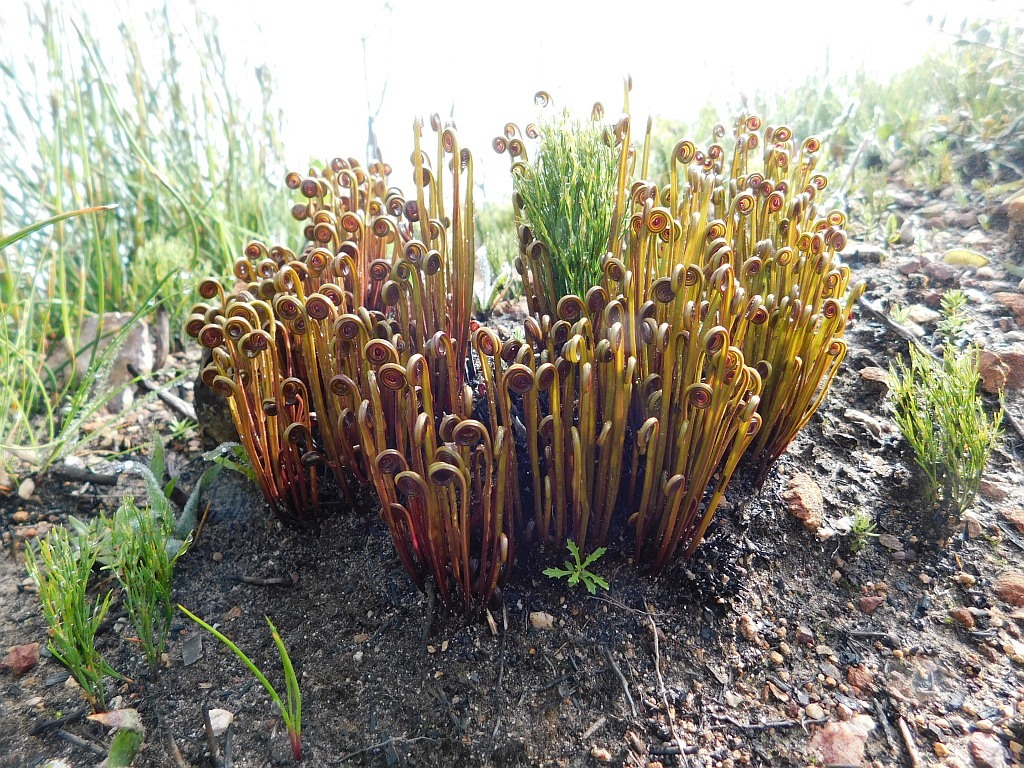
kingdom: Plantae
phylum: Tracheophyta
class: Polypodiopsida
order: Schizaeales
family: Schizaeaceae
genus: Schizaea
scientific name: Schizaea pectinata
